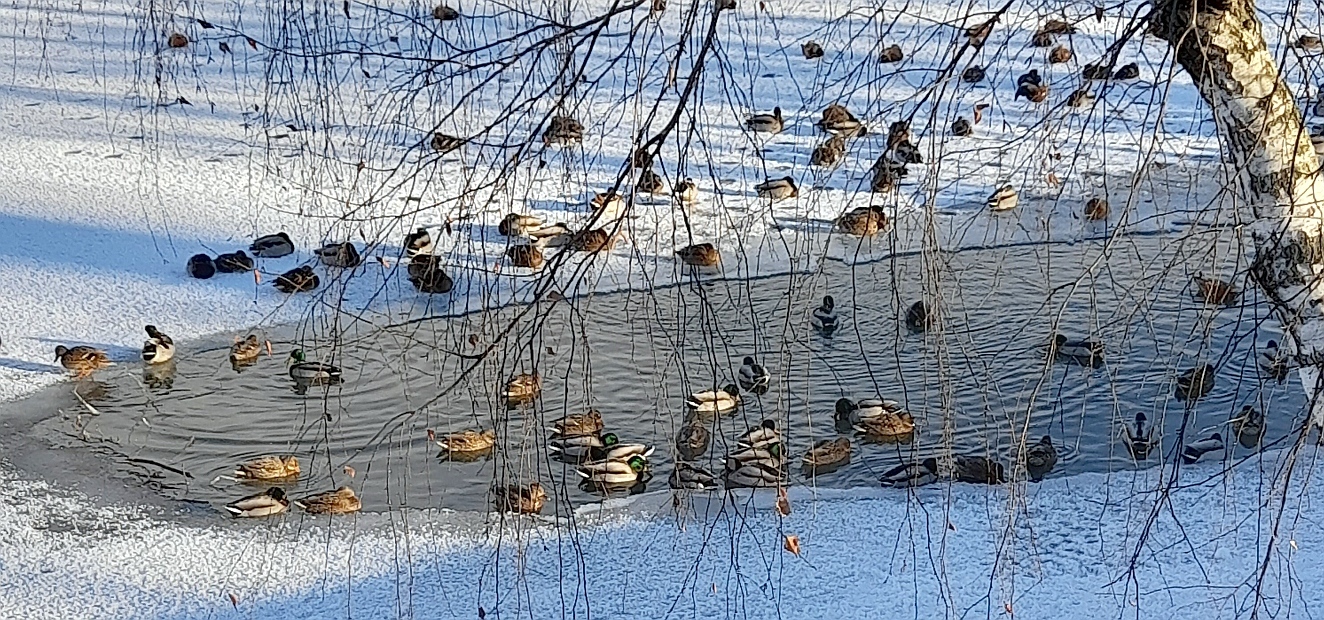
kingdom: Animalia
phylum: Chordata
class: Aves
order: Anseriformes
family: Anatidae
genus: Anas
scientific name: Anas platyrhynchos
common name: Mallard
